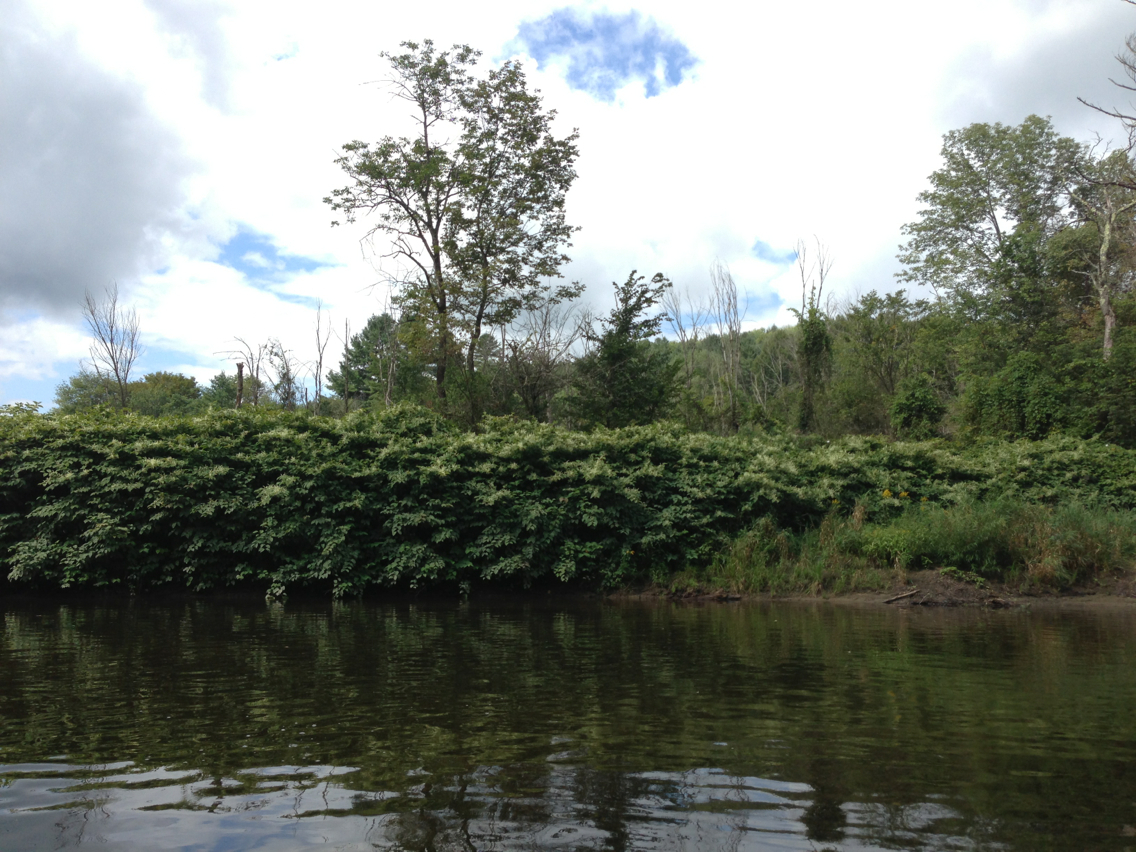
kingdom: Plantae
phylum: Tracheophyta
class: Magnoliopsida
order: Caryophyllales
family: Polygonaceae
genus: Reynoutria
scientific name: Reynoutria japonica
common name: Japanese knotweed
